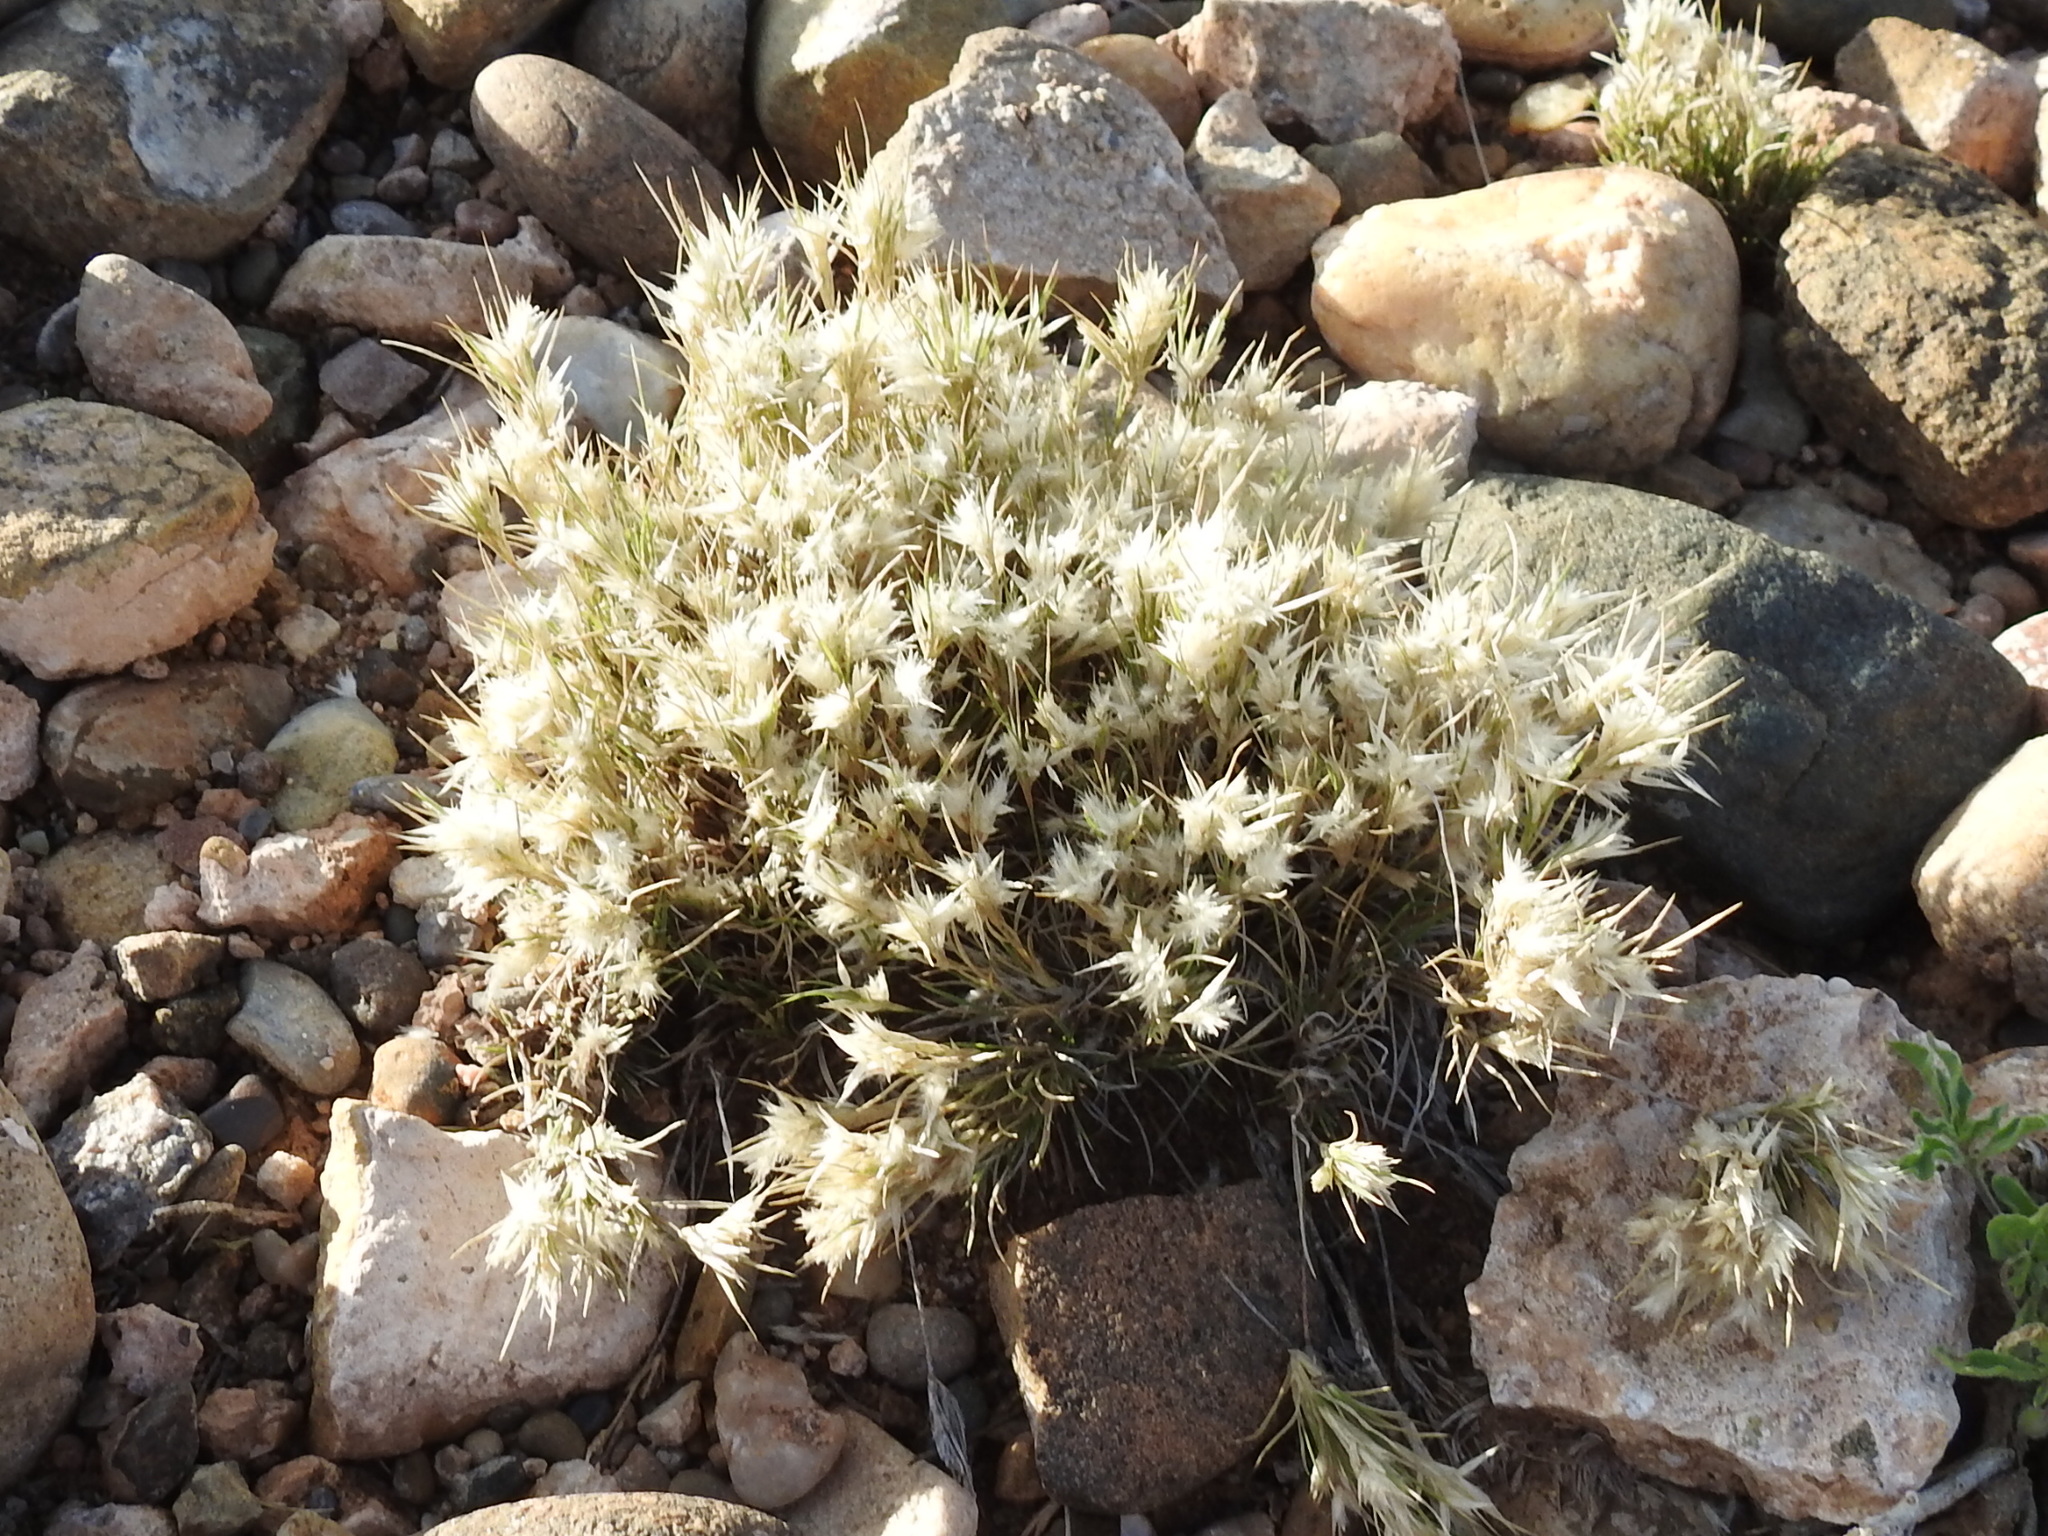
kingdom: Plantae
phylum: Tracheophyta
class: Liliopsida
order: Poales
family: Poaceae
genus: Dasyochloa
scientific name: Dasyochloa pulchella
